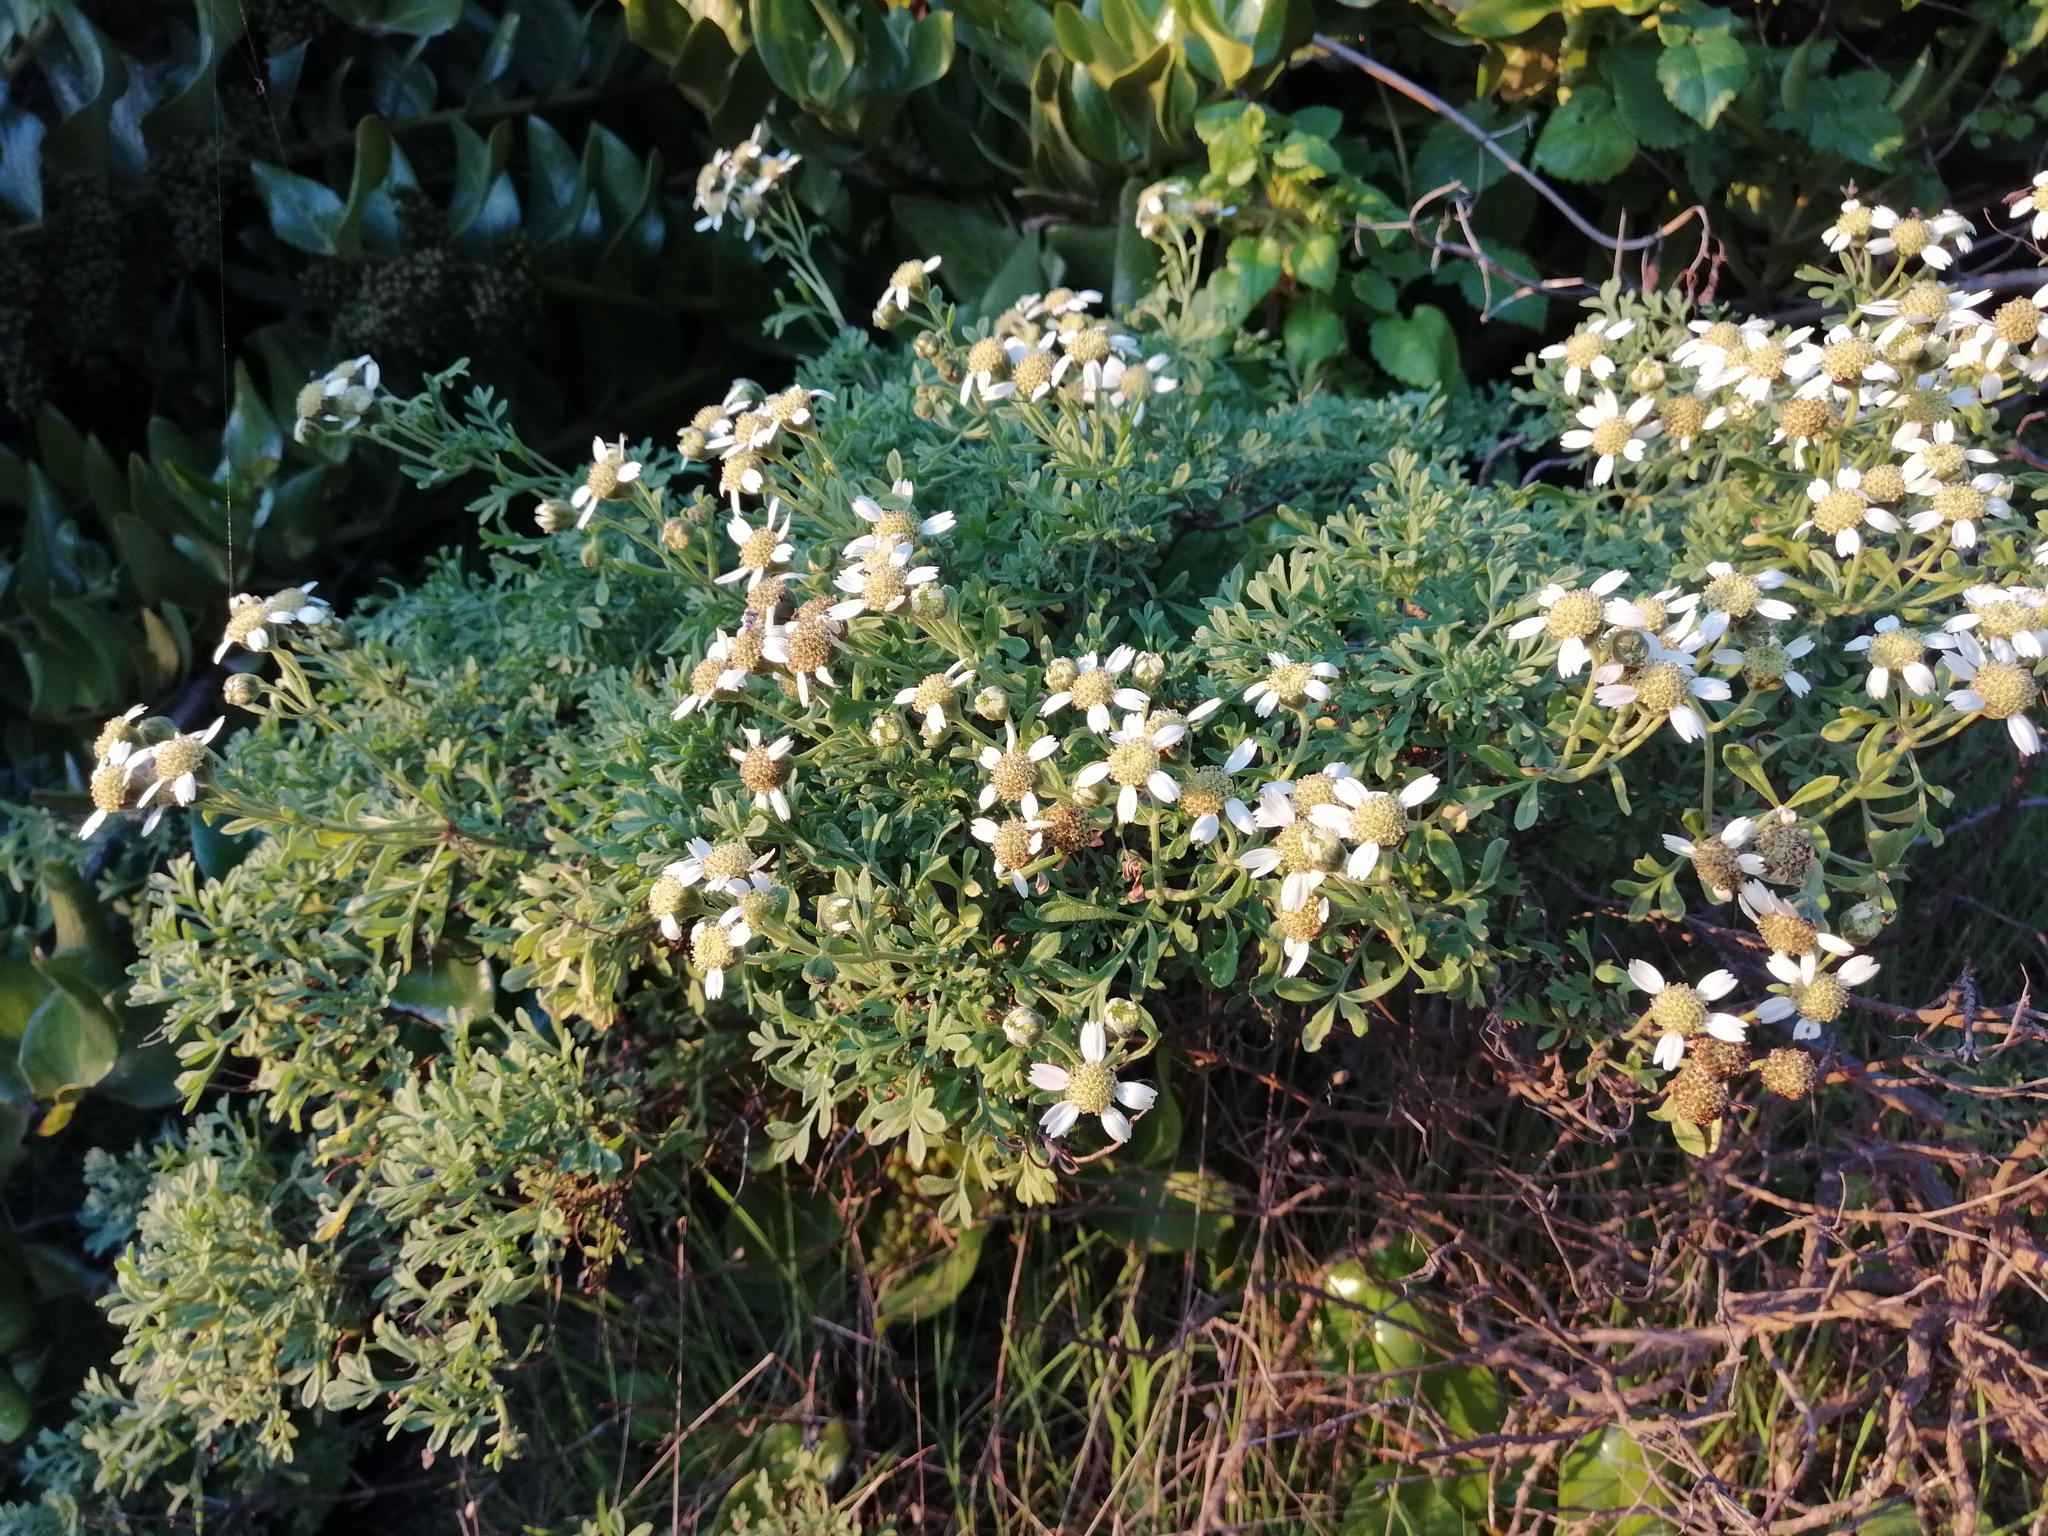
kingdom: Plantae
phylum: Tracheophyta
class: Magnoliopsida
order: Asterales
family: Asteraceae
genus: Bahia
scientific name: Bahia ambrosioides
